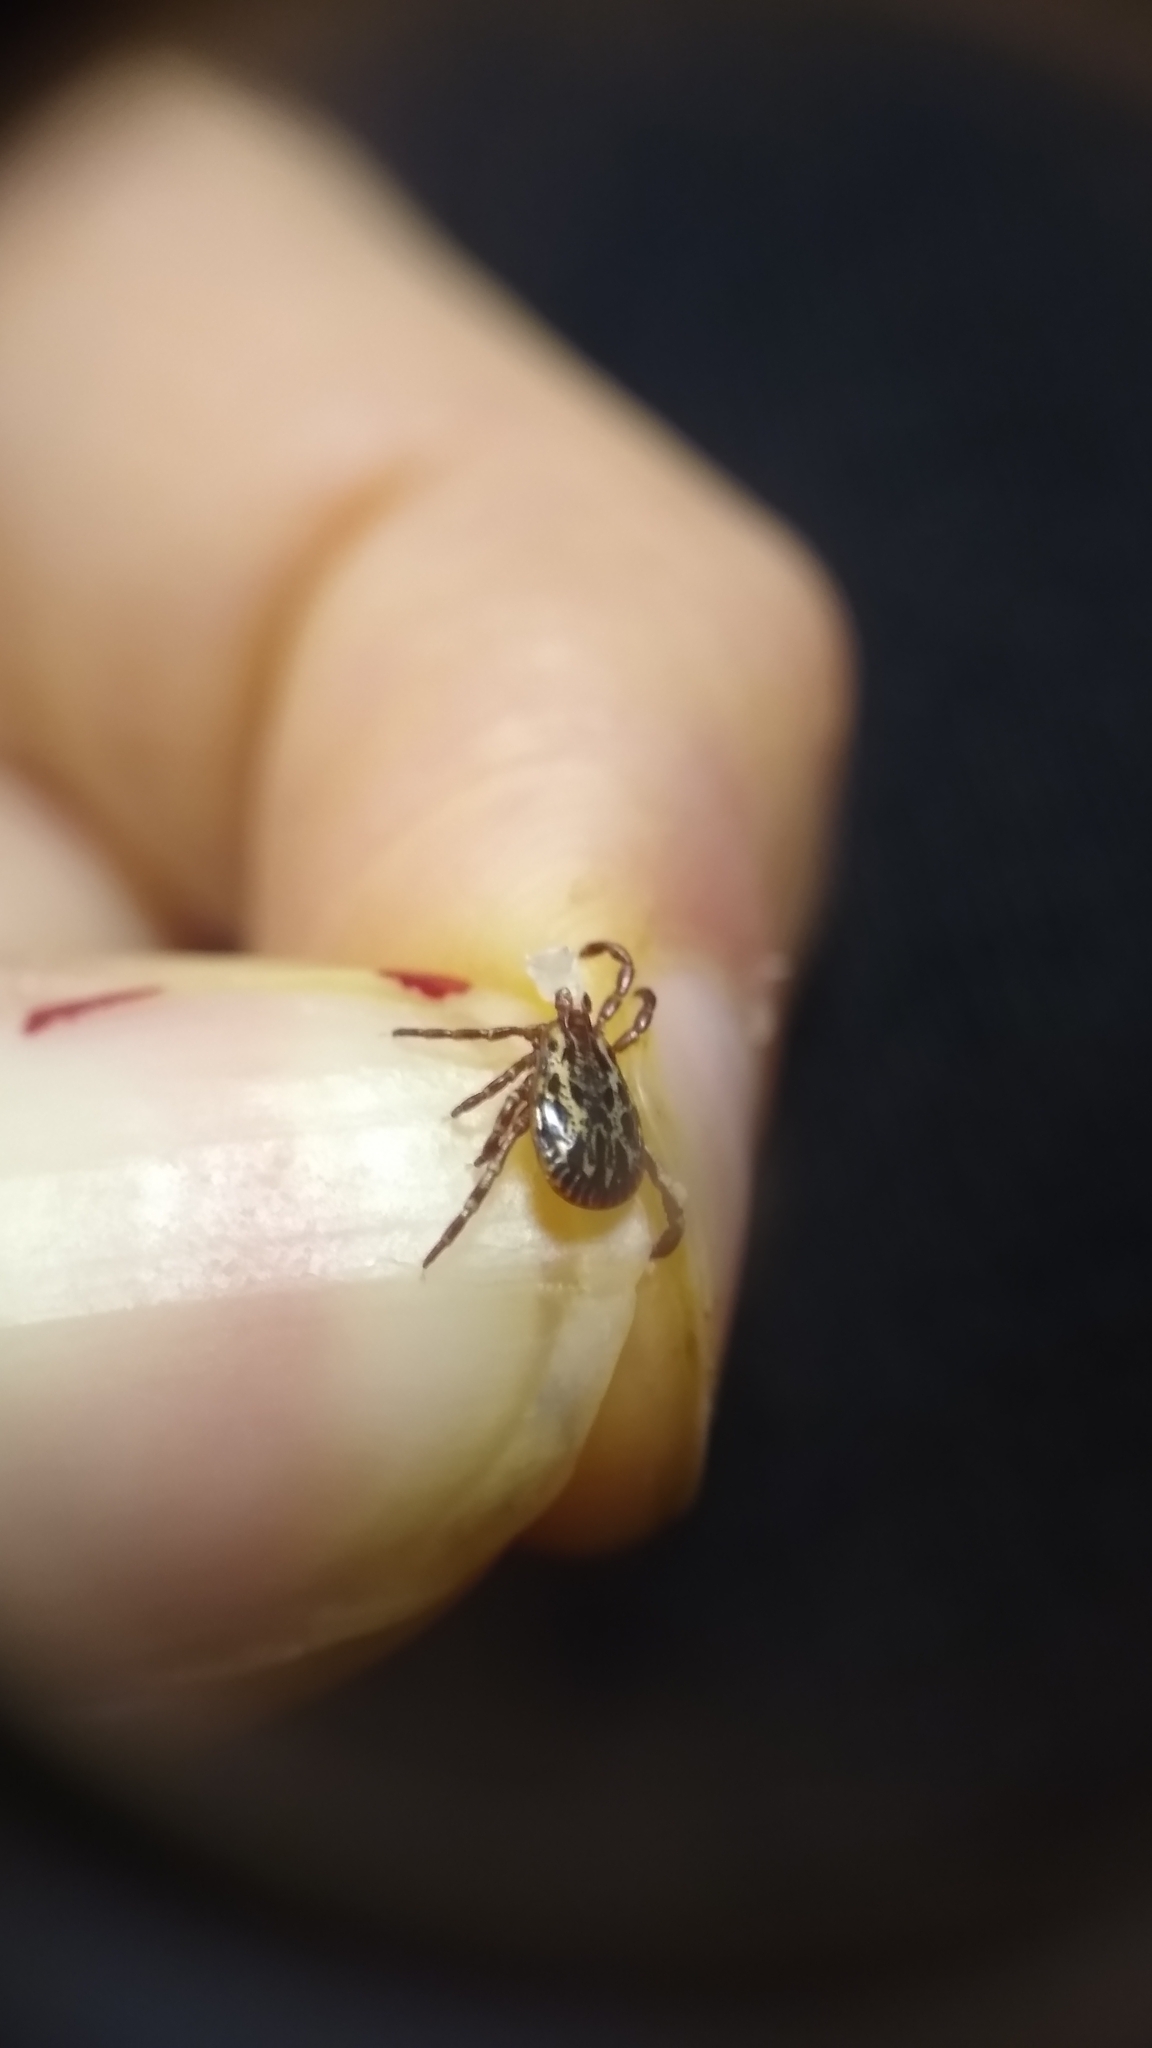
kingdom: Animalia
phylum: Arthropoda
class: Arachnida
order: Ixodida
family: Ixodidae
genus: Dermacentor
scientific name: Dermacentor variabilis
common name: American dog tick
